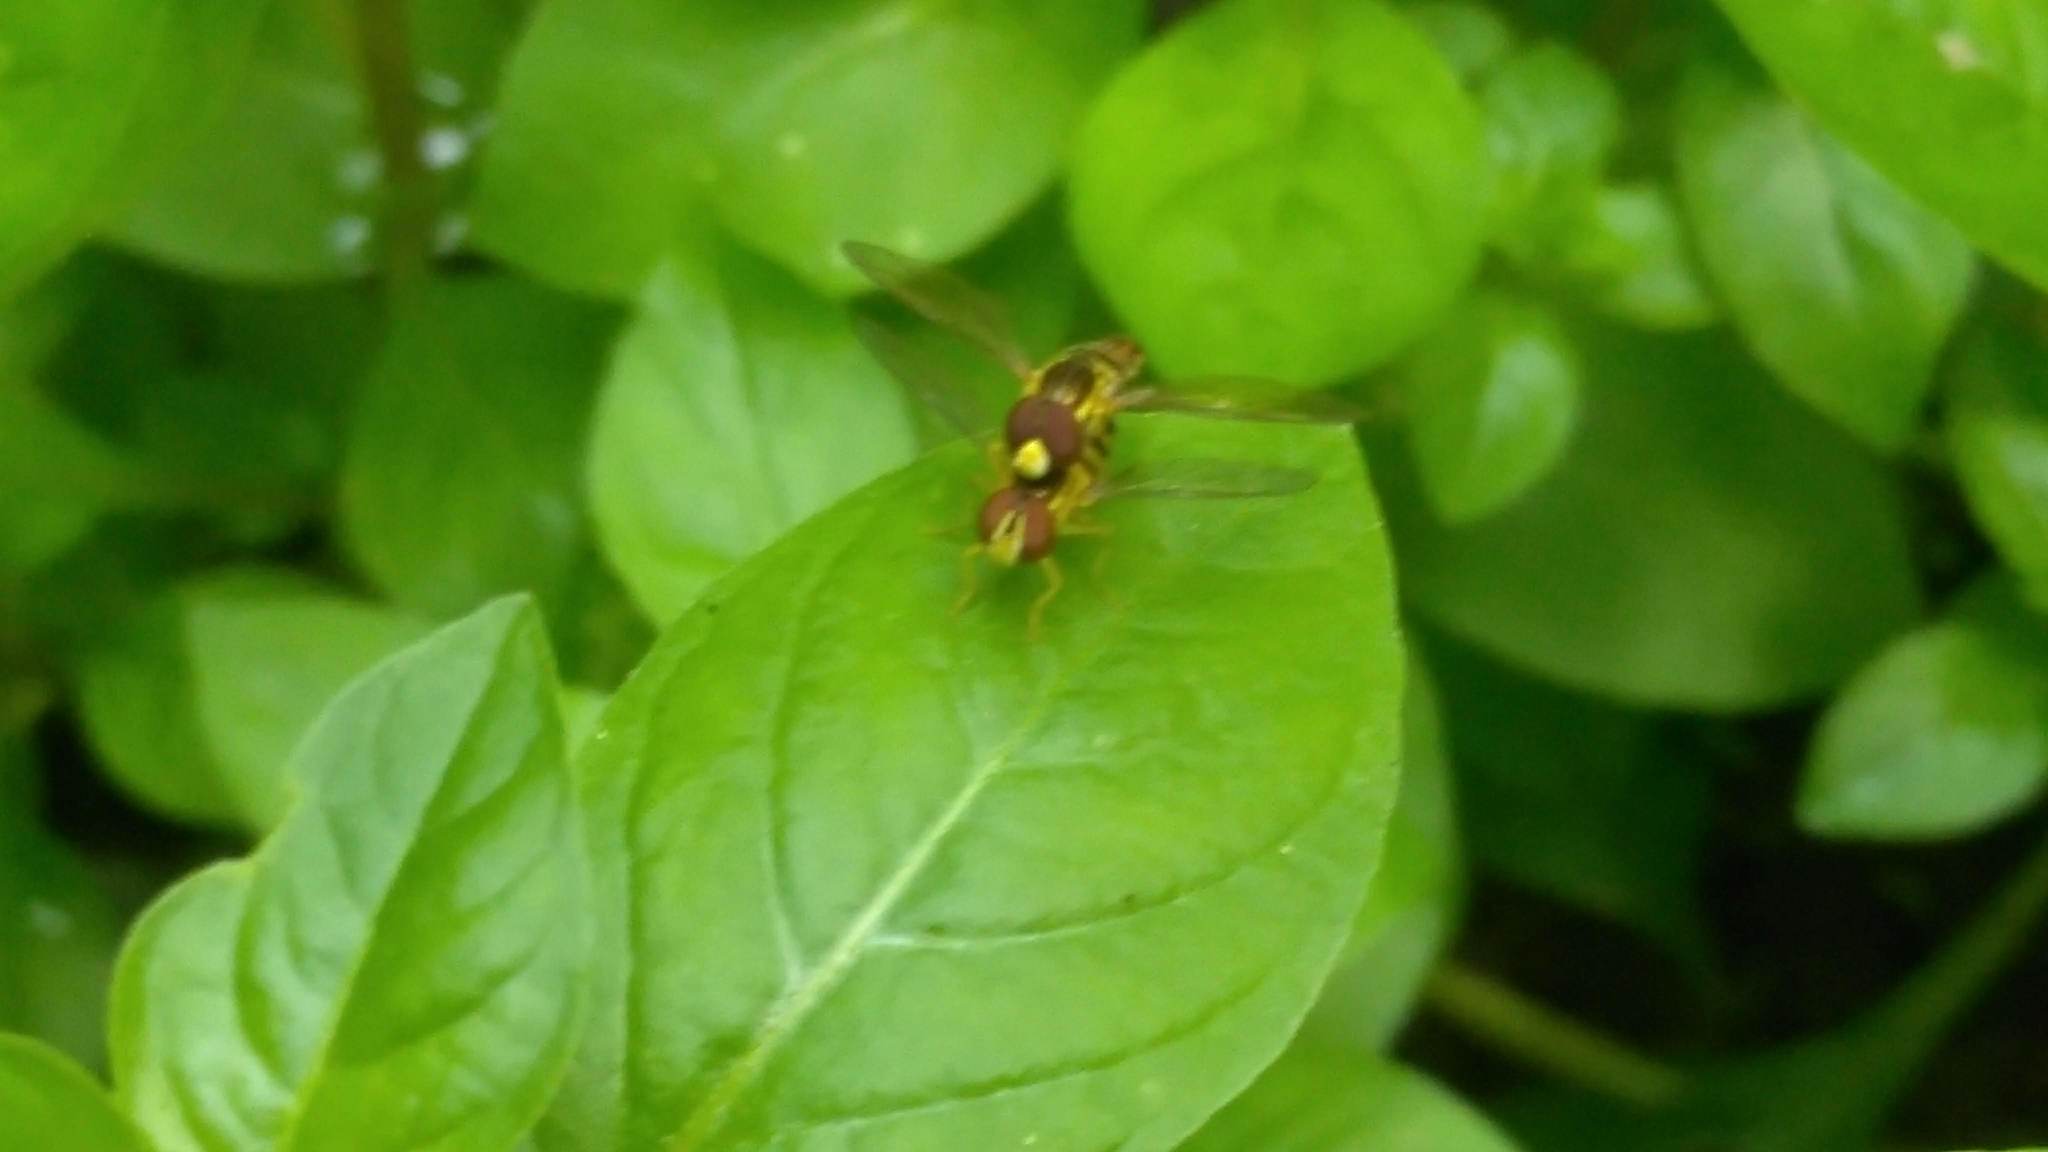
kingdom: Animalia
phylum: Arthropoda
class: Insecta
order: Diptera
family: Syrphidae
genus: Toxomerus
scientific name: Toxomerus geminatus
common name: Eastern calligrapher
